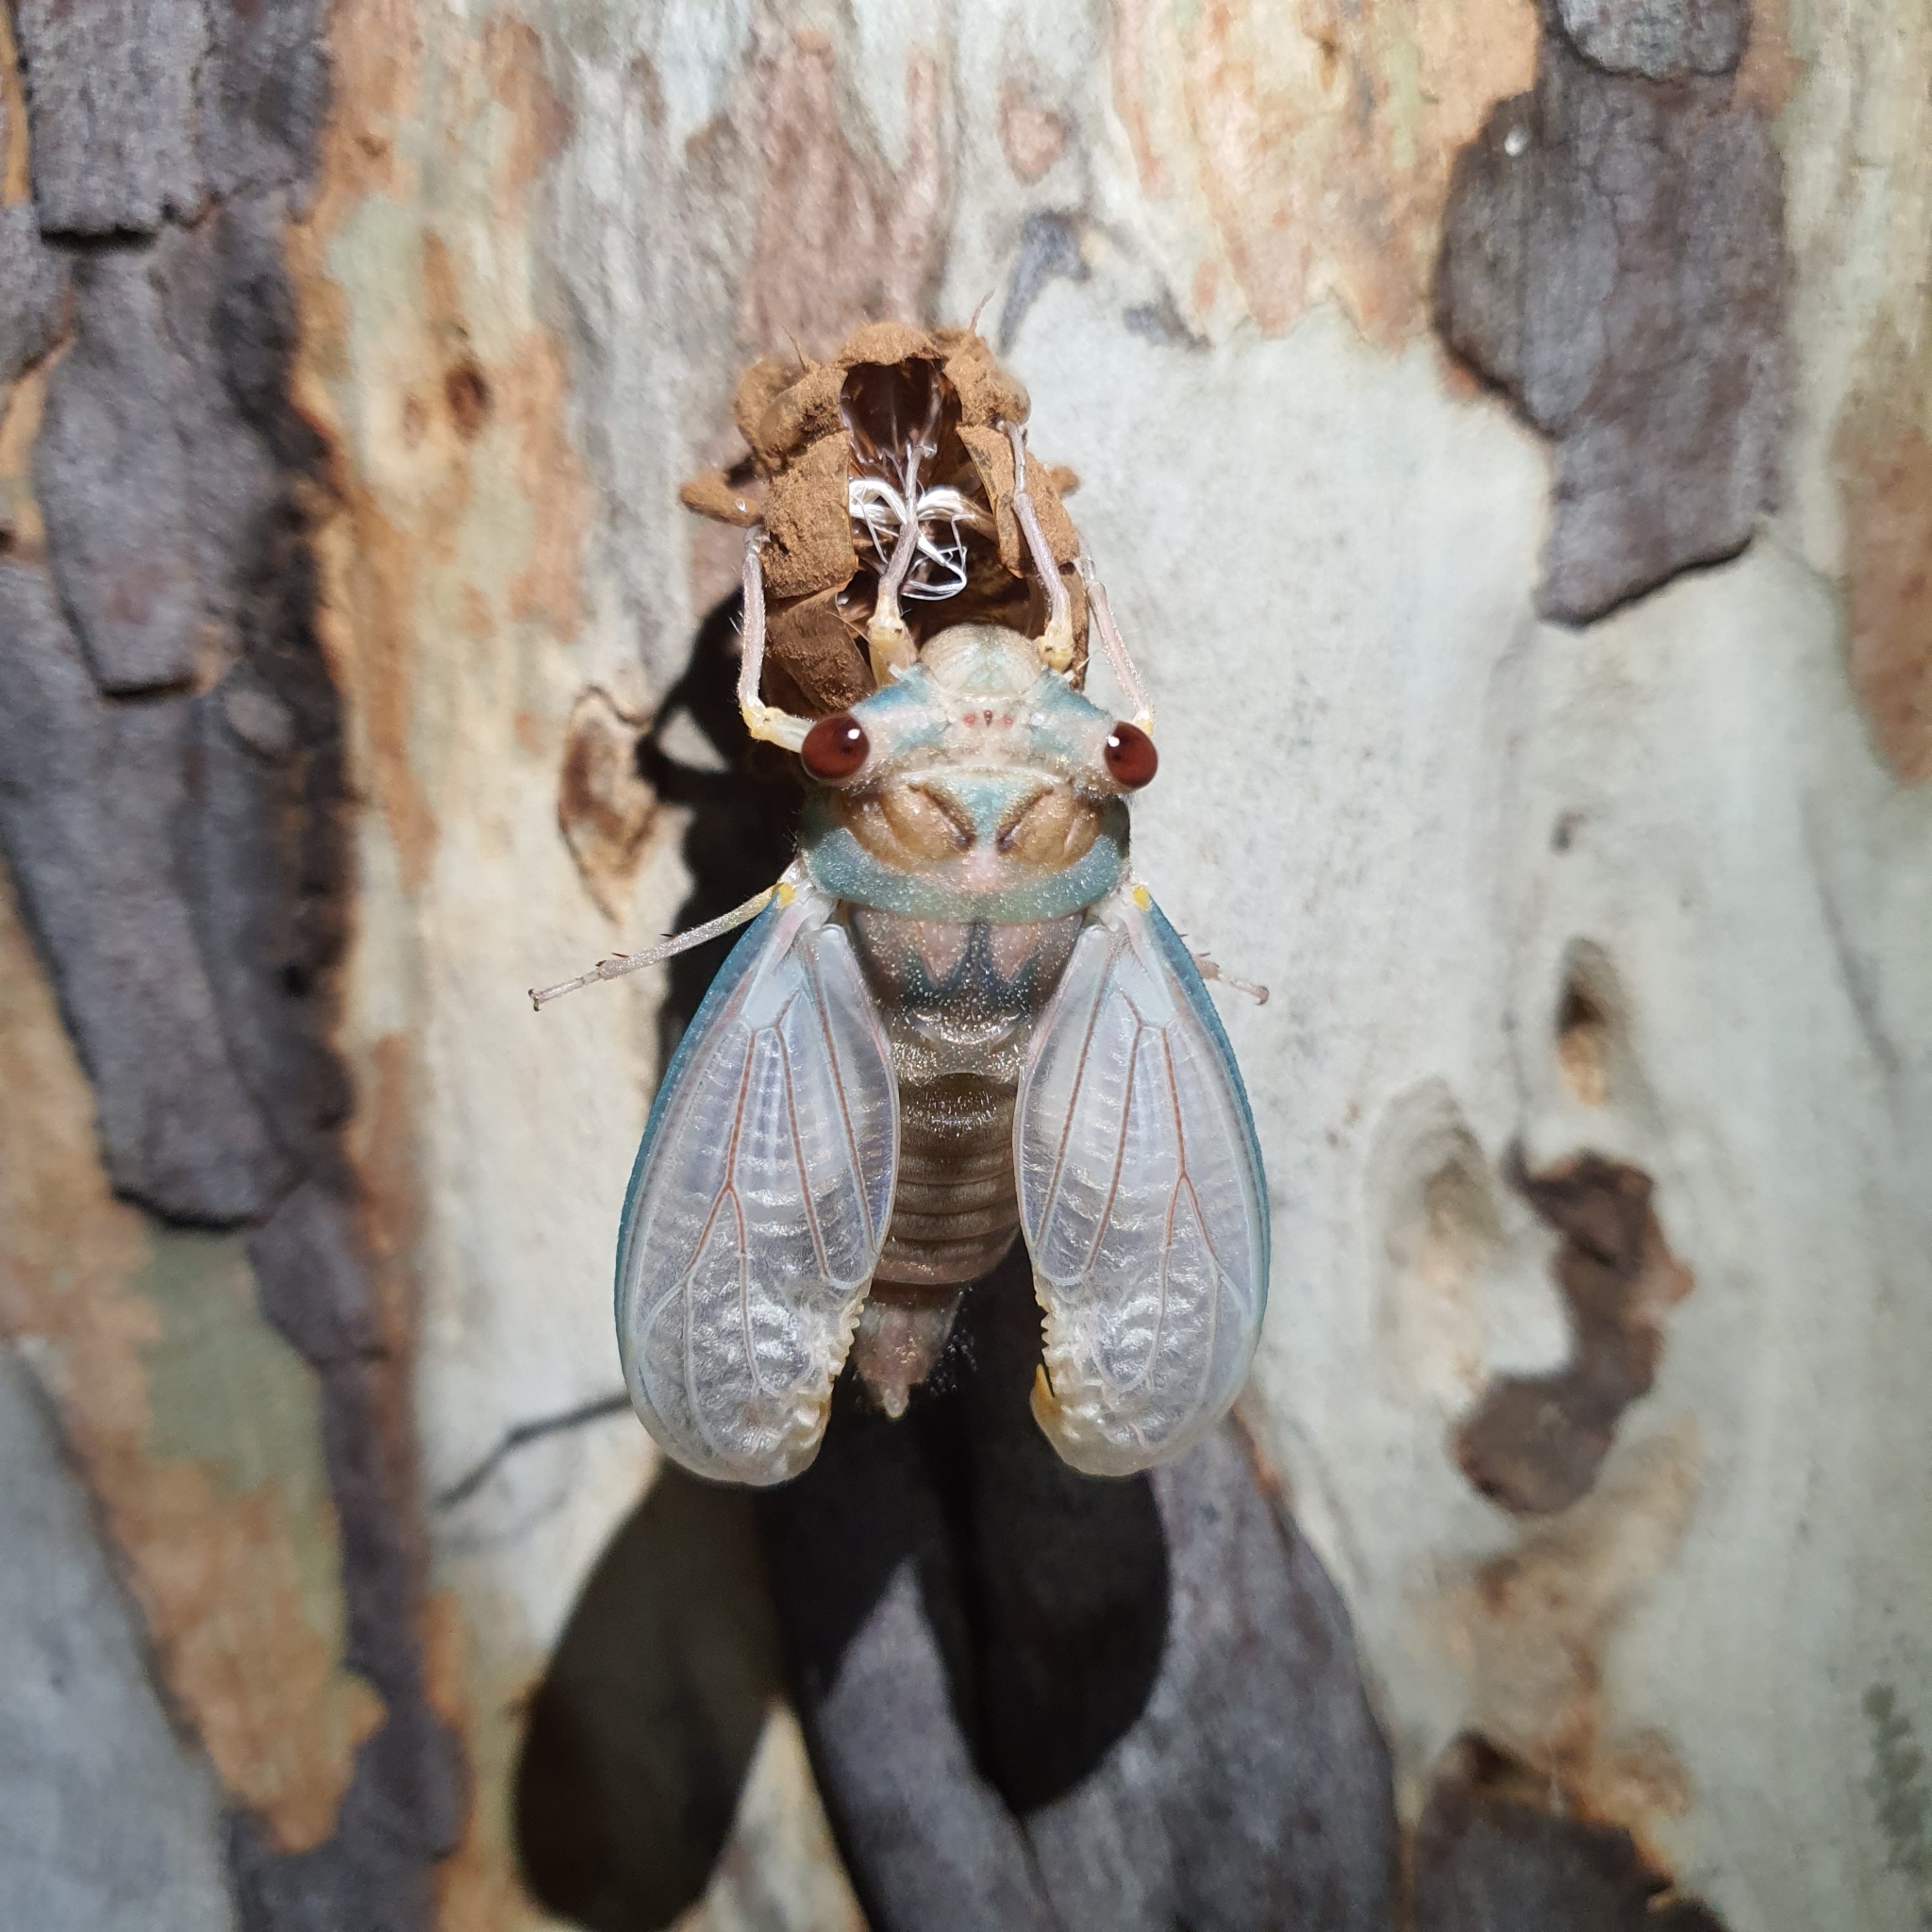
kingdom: Animalia
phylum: Arthropoda
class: Insecta
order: Hemiptera
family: Cicadidae
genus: Psaltoda
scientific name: Psaltoda moerens
